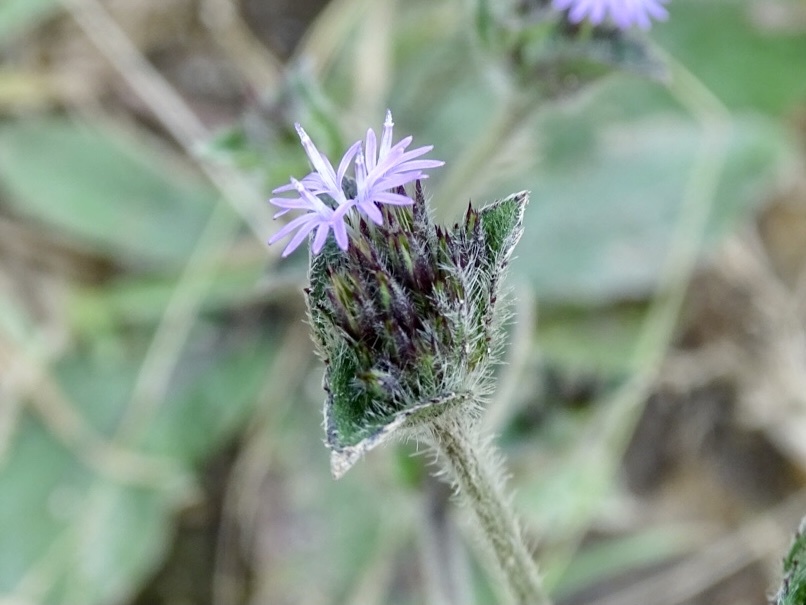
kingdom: Plantae
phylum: Tracheophyta
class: Magnoliopsida
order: Asterales
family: Asteraceae
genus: Elephantopus
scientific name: Elephantopus scaber
